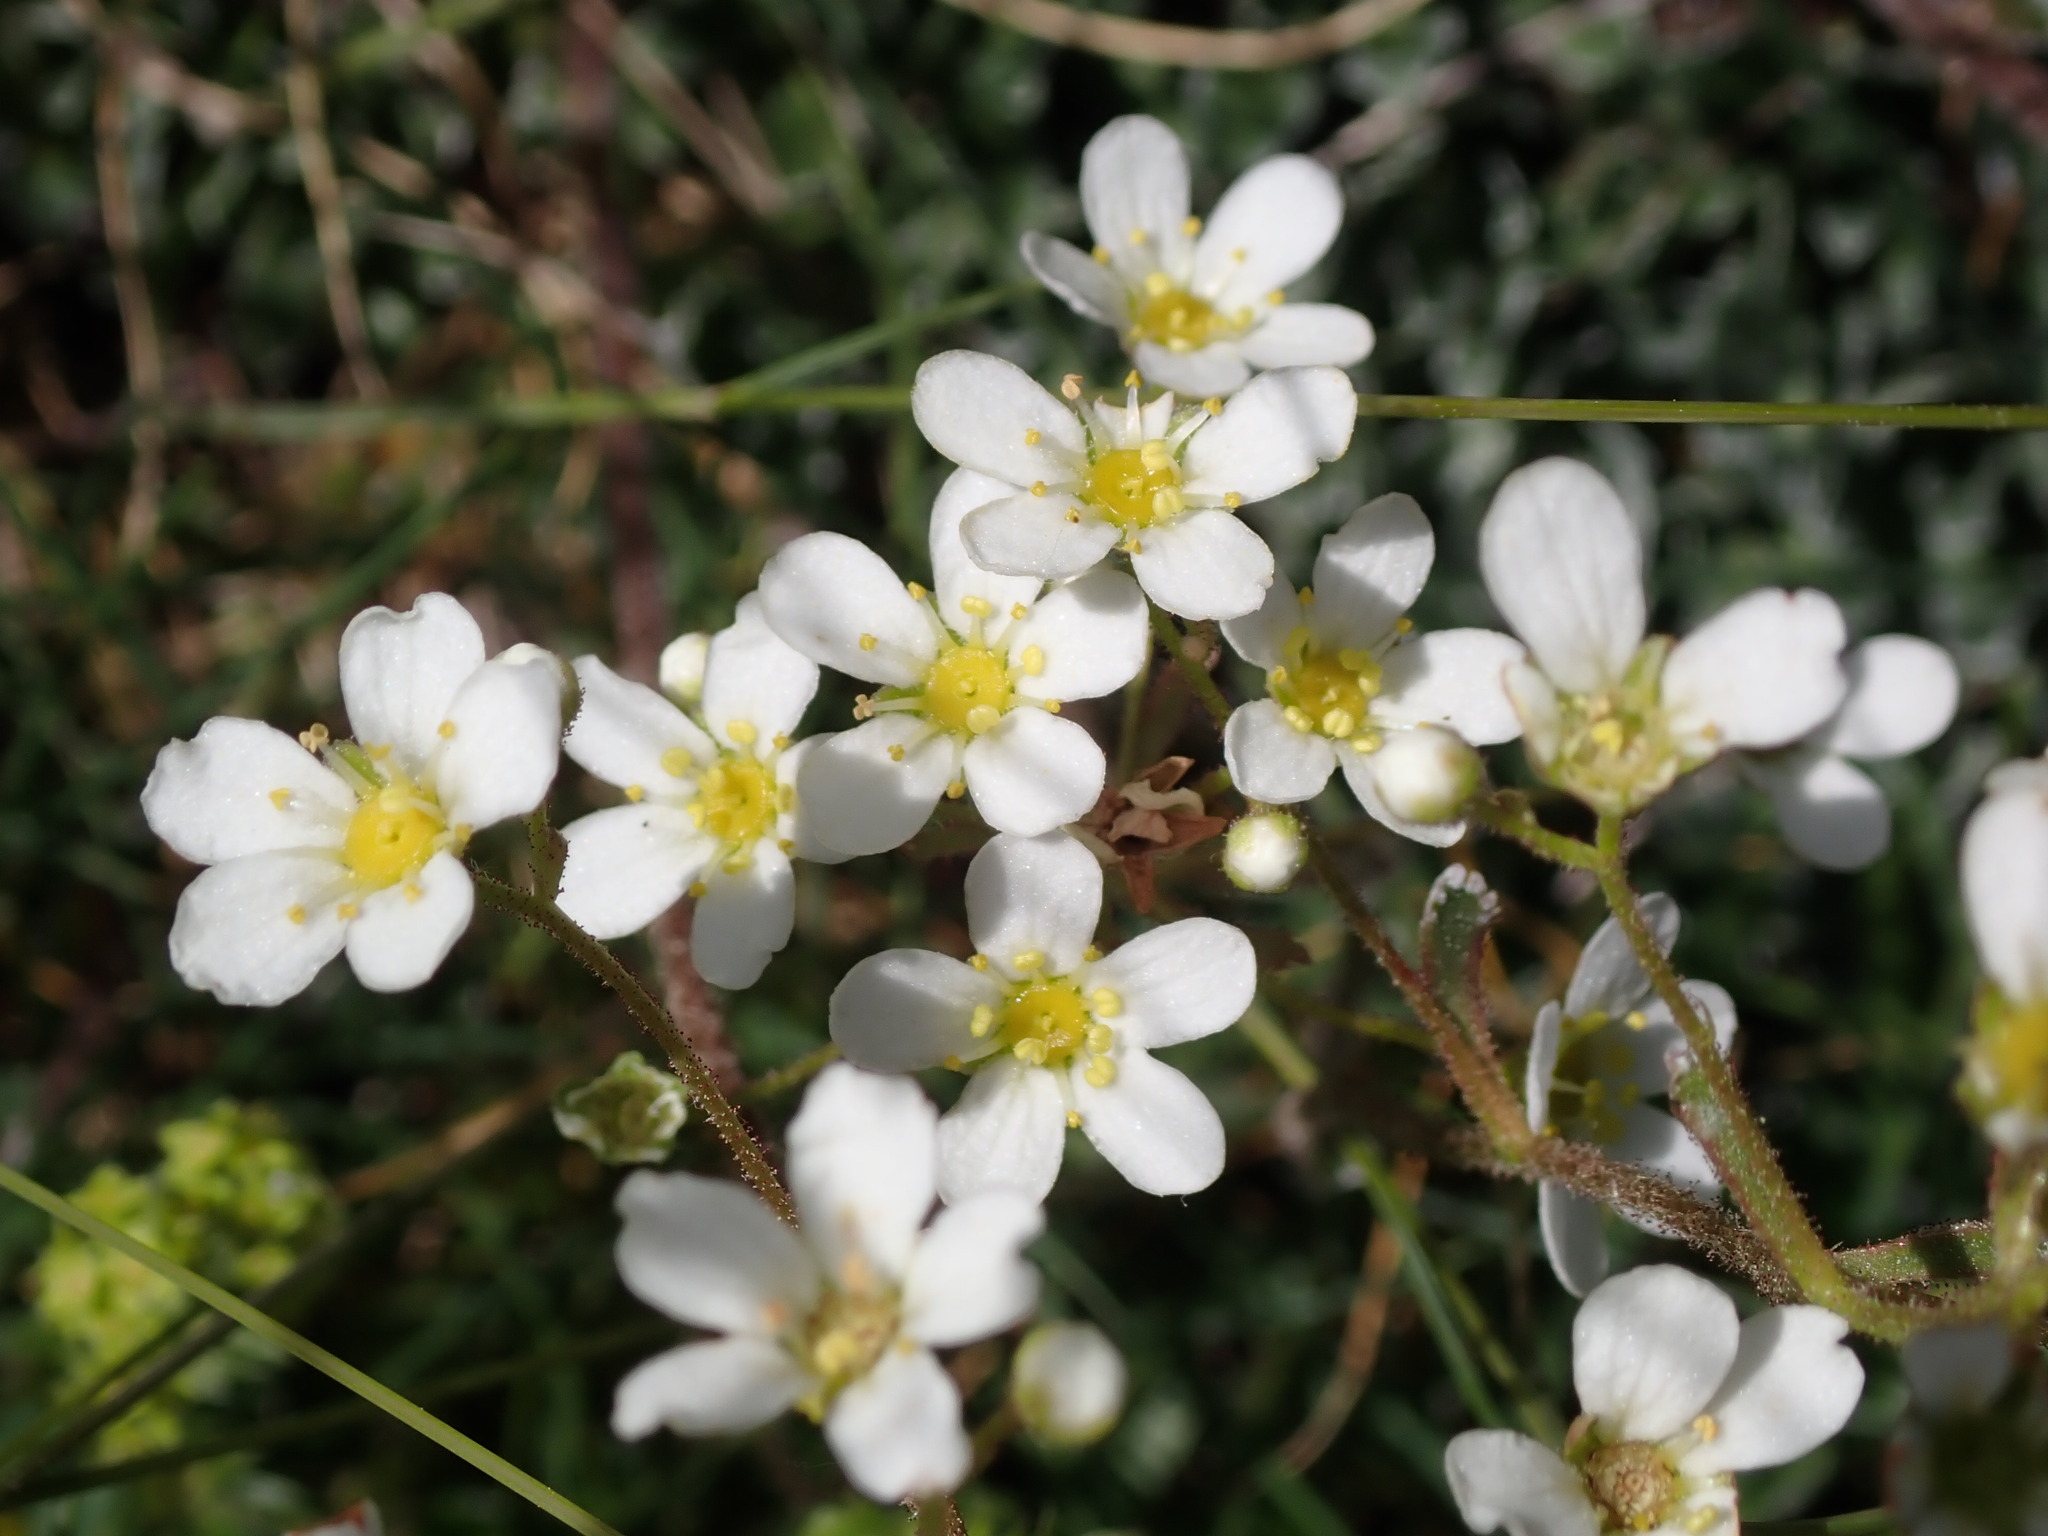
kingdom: Plantae
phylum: Tracheophyta
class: Magnoliopsida
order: Saxifragales
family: Saxifragaceae
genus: Saxifraga
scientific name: Saxifraga paniculata
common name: Livelong saxifrage
